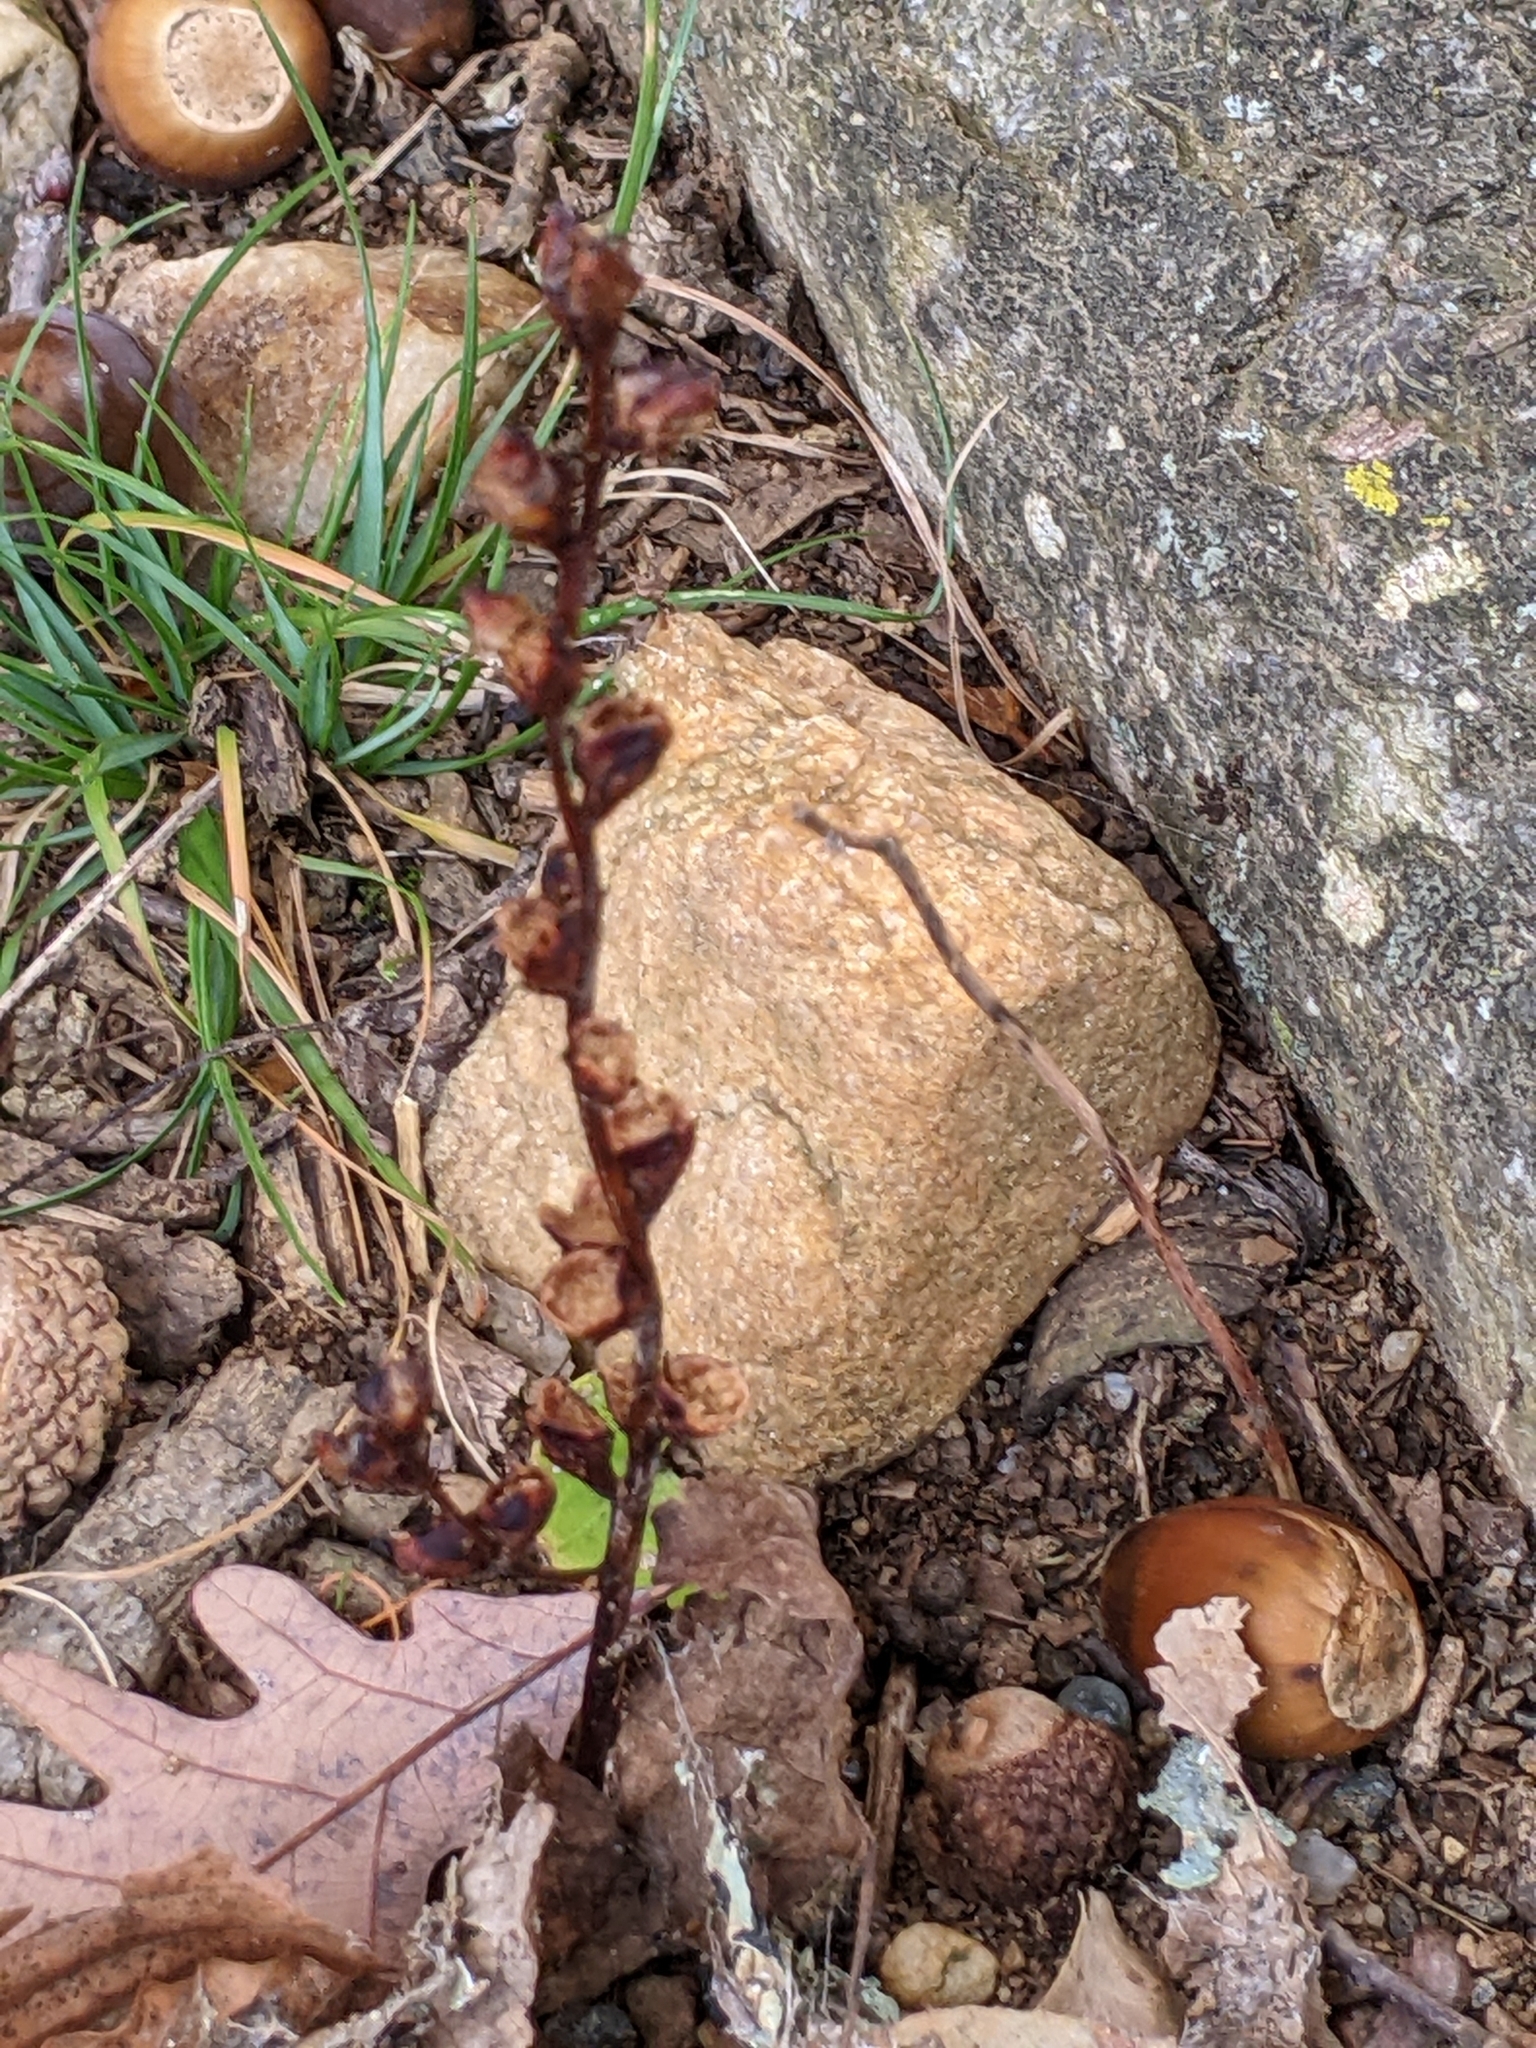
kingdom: Plantae
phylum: Tracheophyta
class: Magnoliopsida
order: Lamiales
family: Orobanchaceae
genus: Epifagus
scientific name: Epifagus virginiana
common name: Beechdrops
